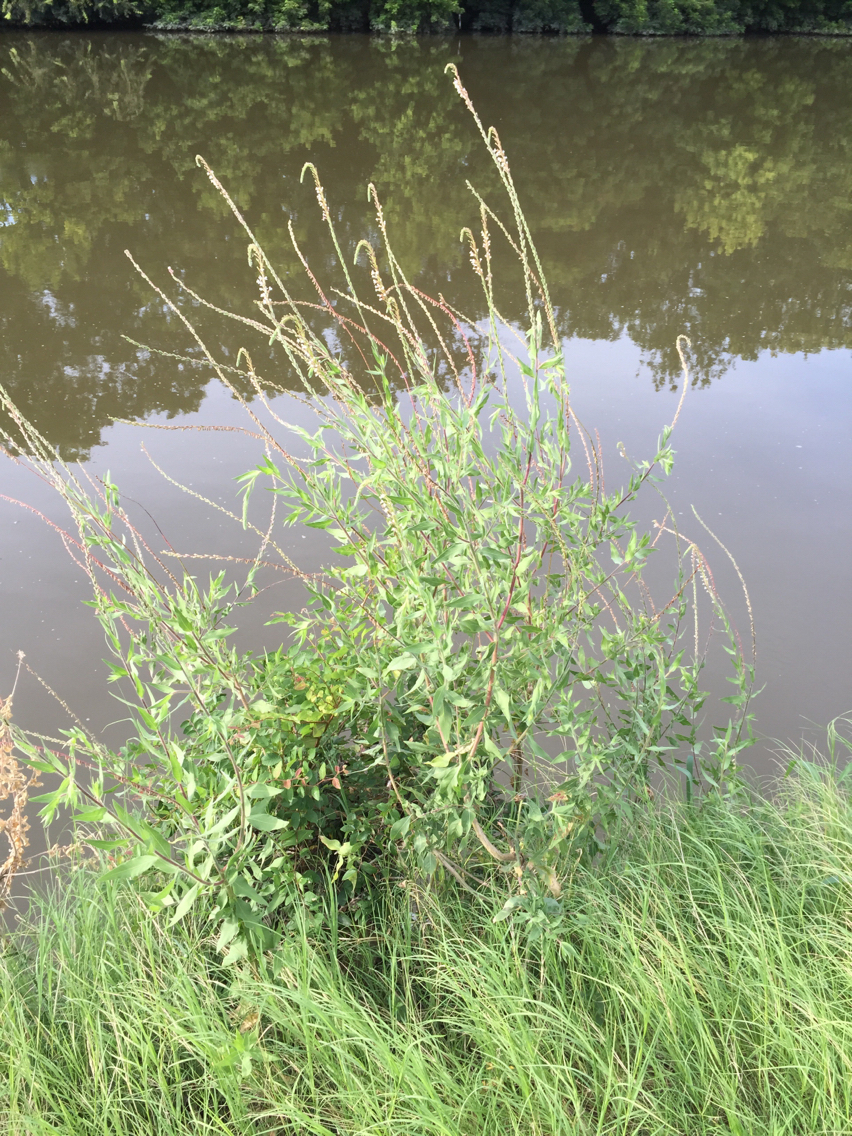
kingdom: Plantae
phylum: Tracheophyta
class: Magnoliopsida
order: Myrtales
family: Onagraceae
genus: Oenothera
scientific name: Oenothera curtiflora
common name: Velvetweed
